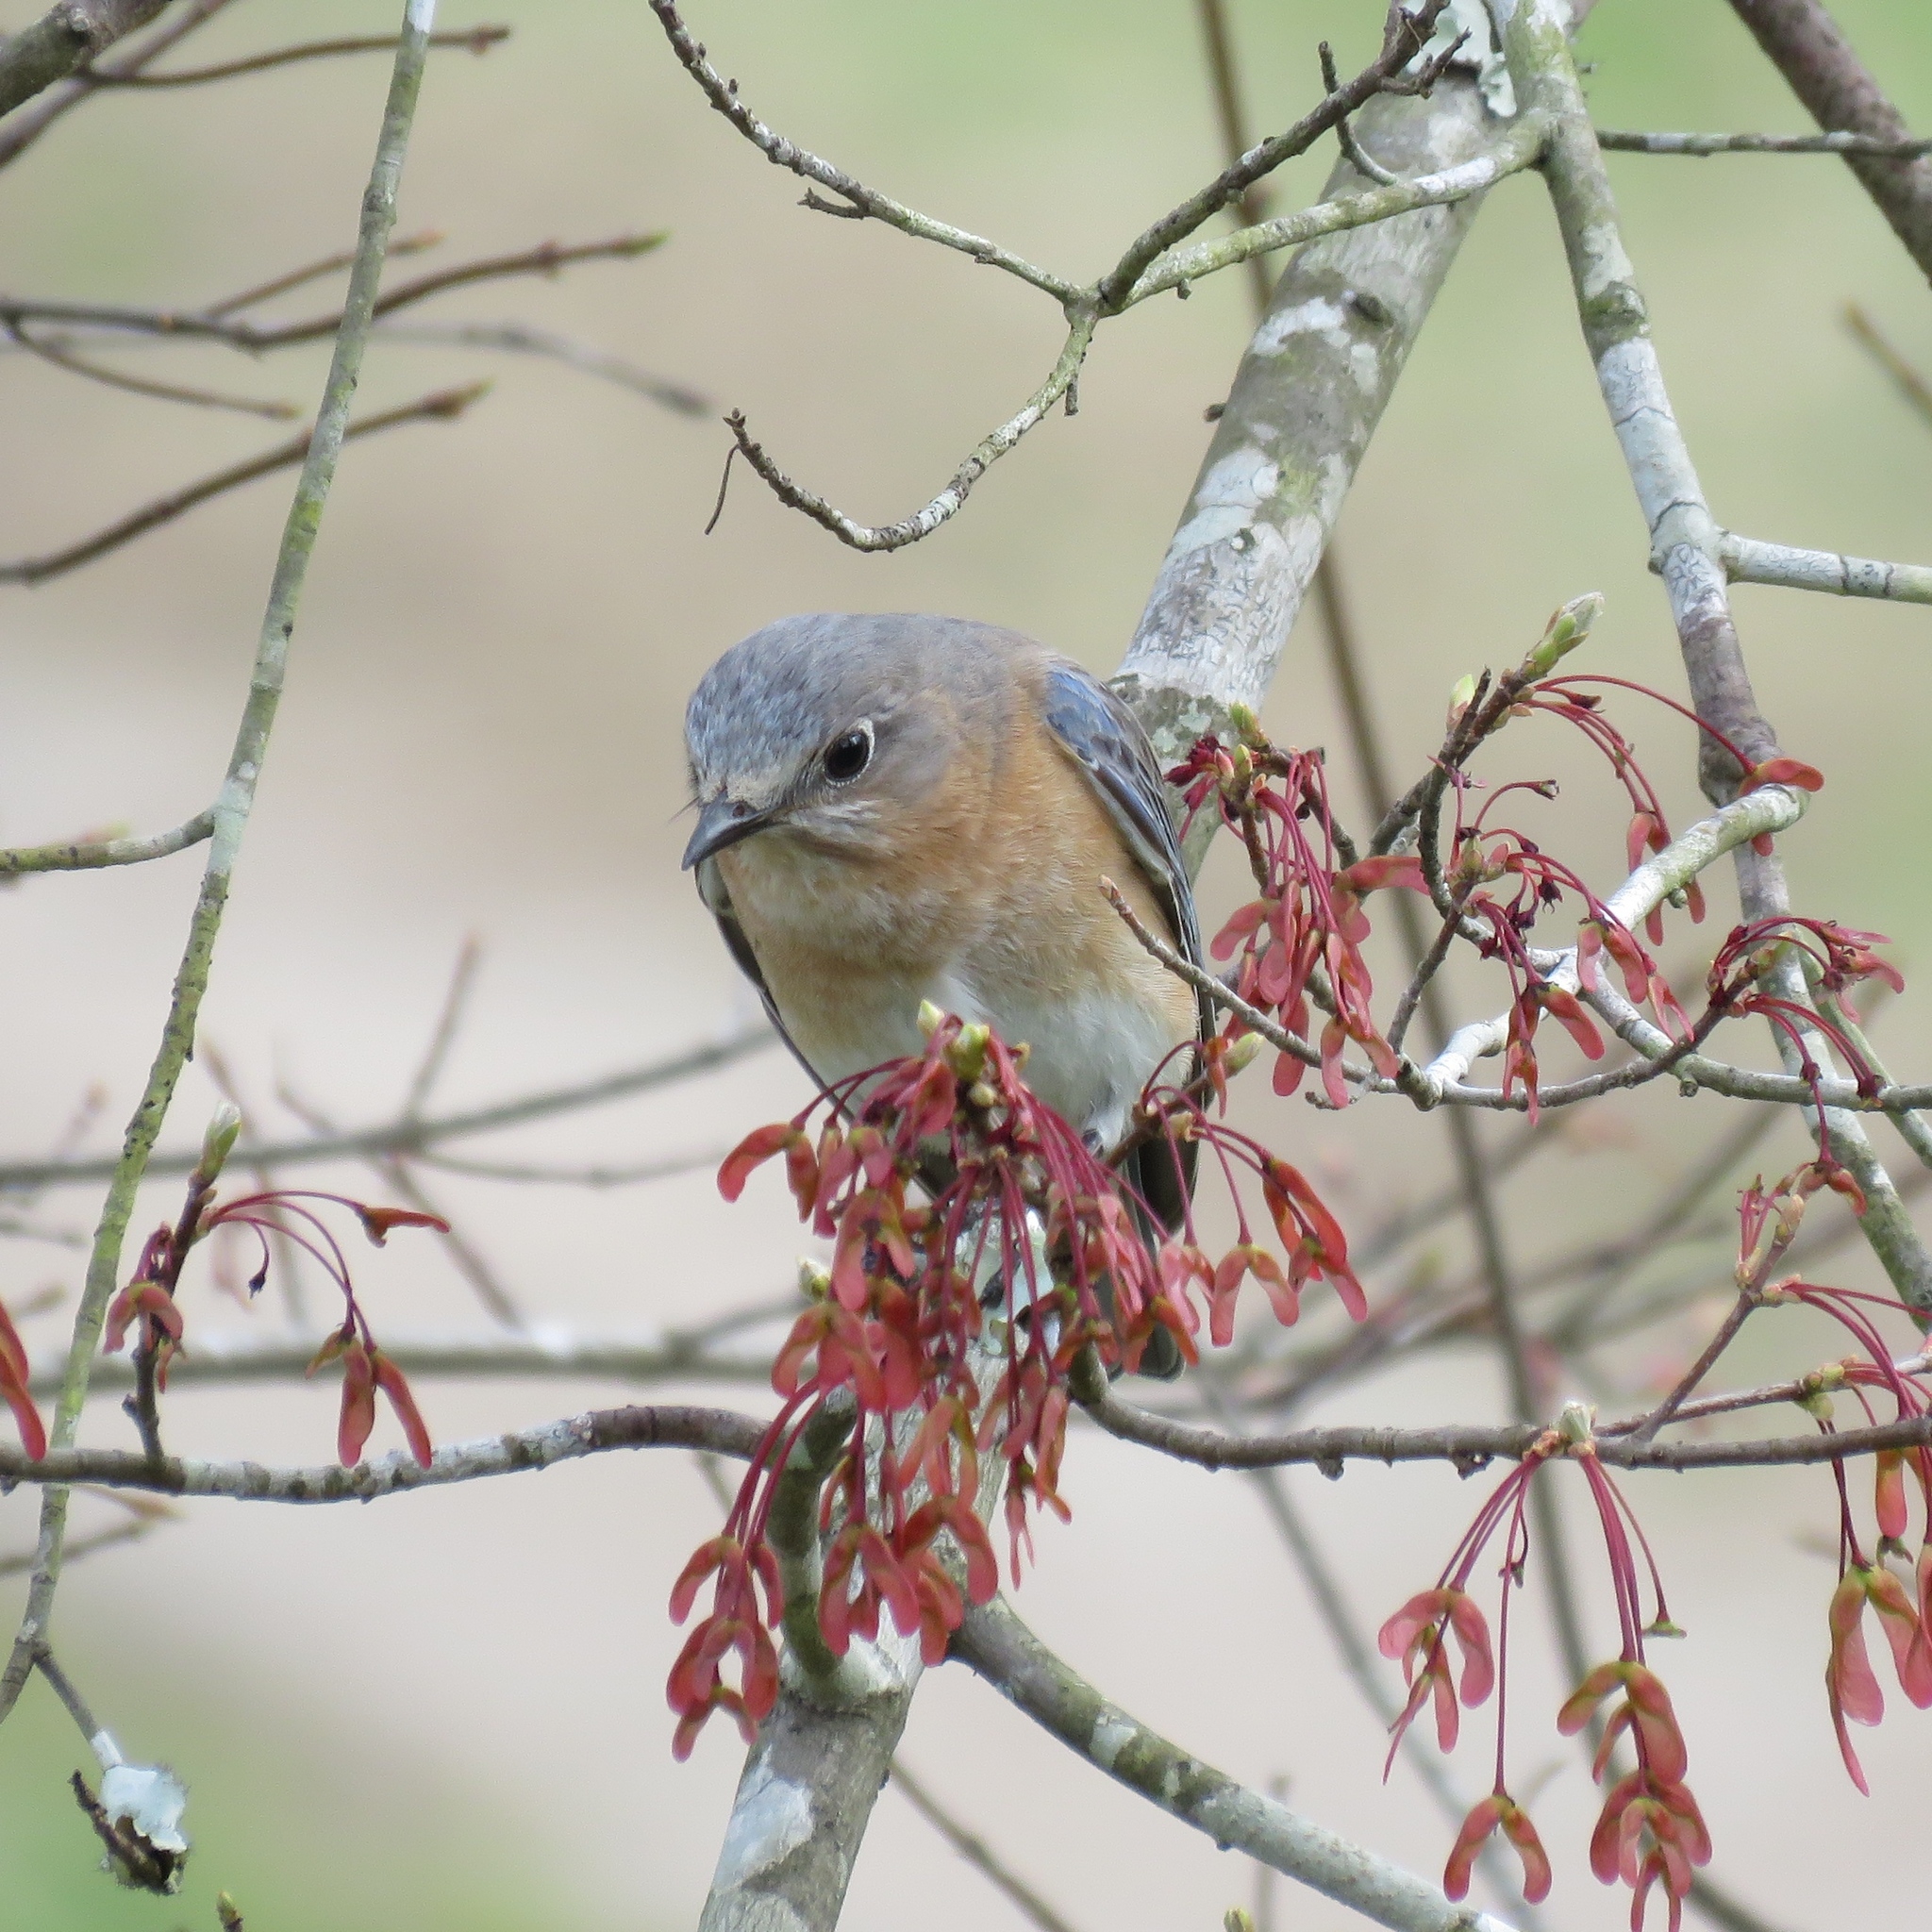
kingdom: Animalia
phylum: Chordata
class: Aves
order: Passeriformes
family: Turdidae
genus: Sialia
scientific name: Sialia sialis
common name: Eastern bluebird
